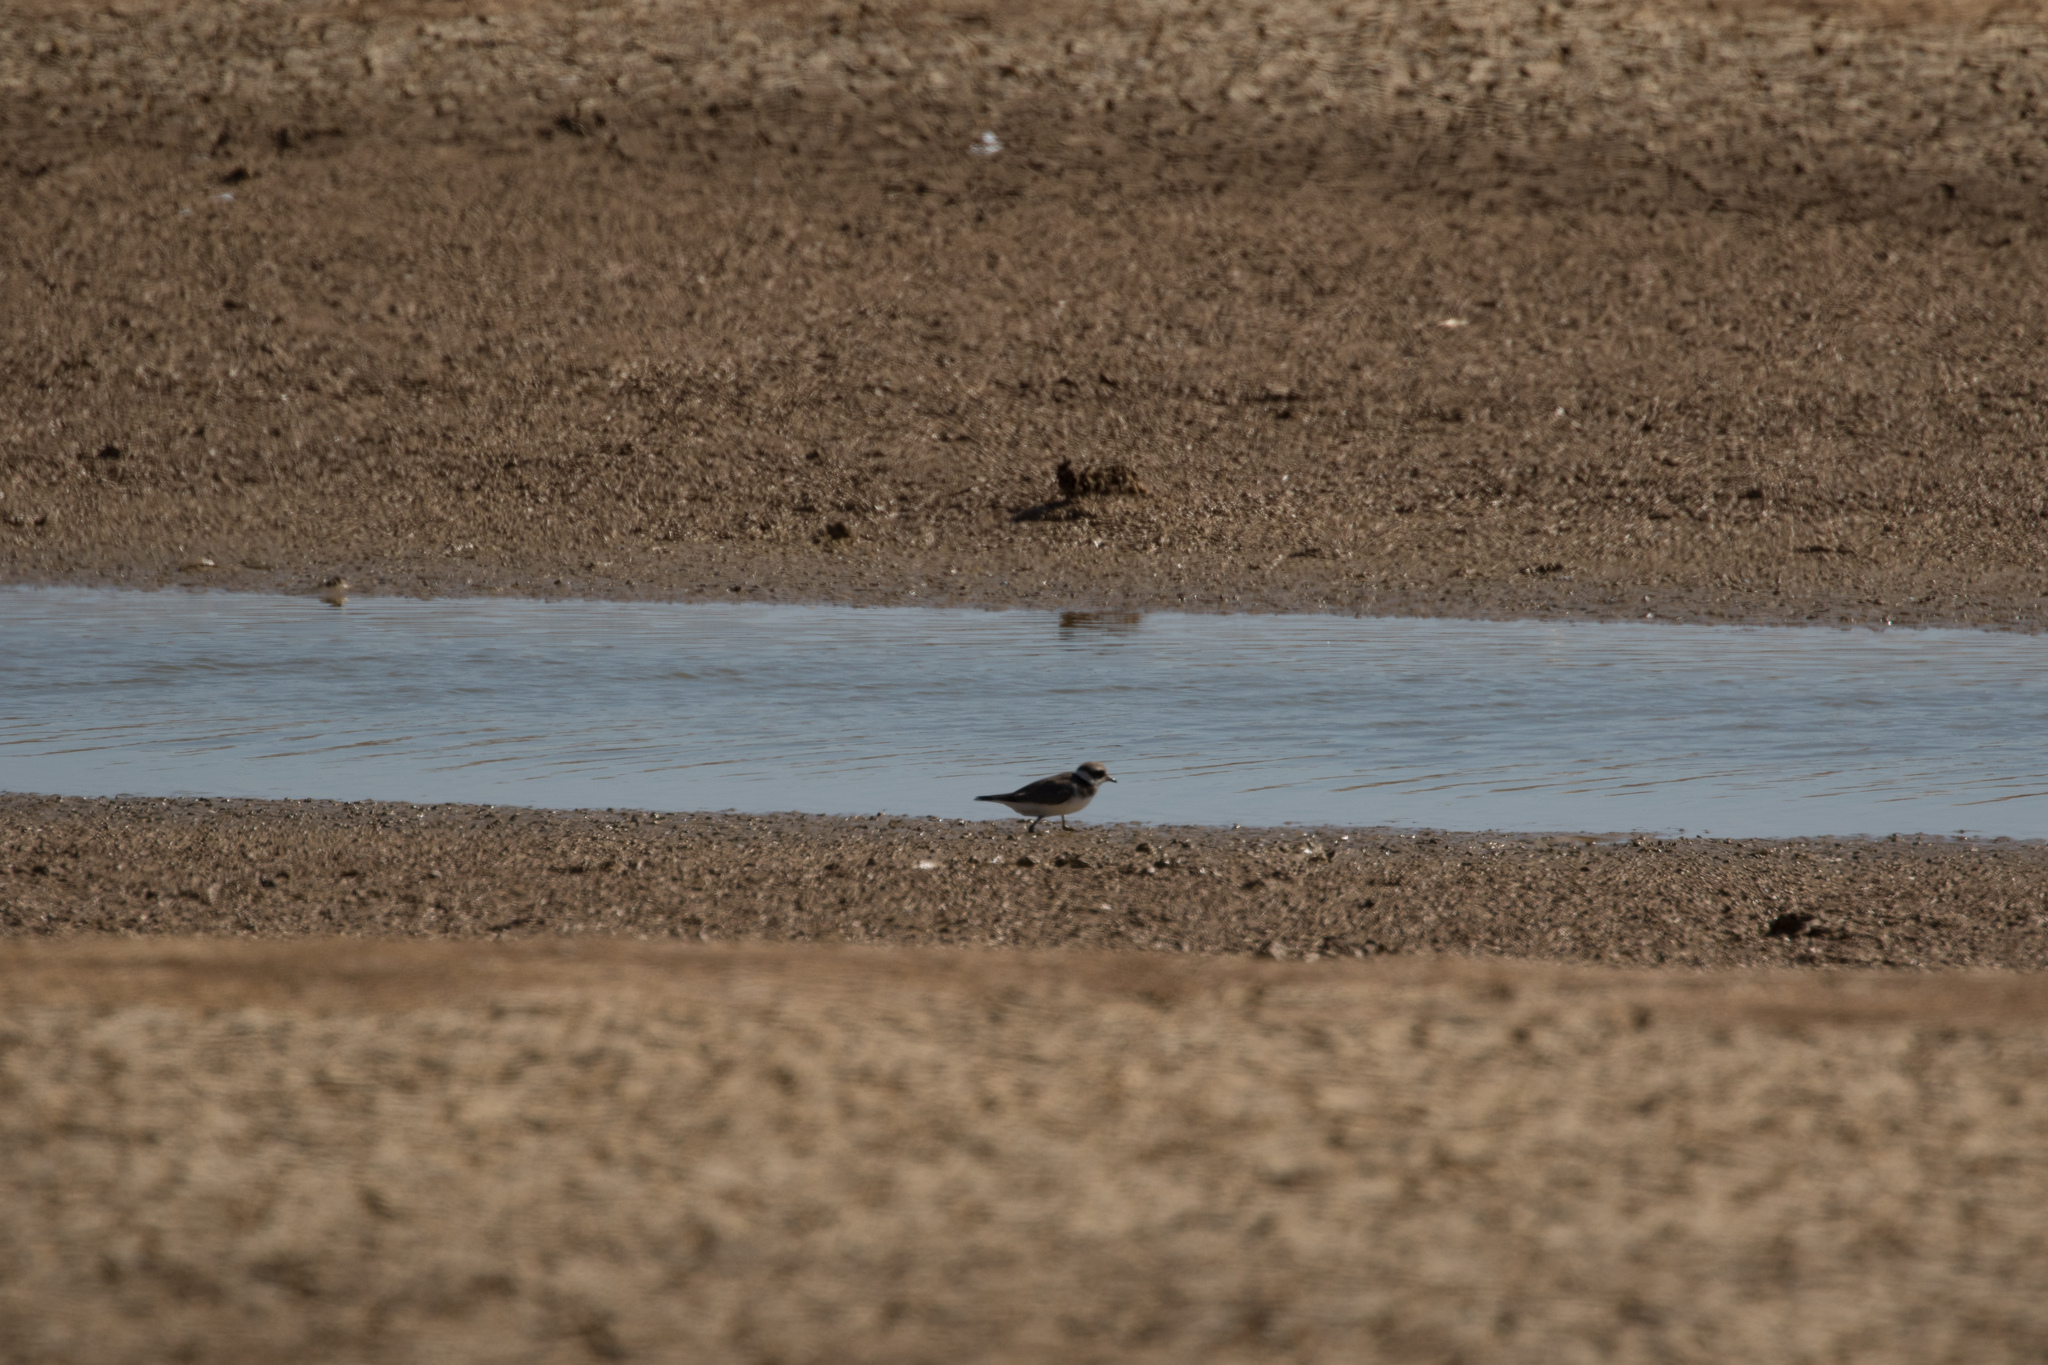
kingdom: Animalia
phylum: Chordata
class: Aves
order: Charadriiformes
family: Charadriidae
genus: Charadrius
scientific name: Charadrius hiaticula
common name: Common ringed plover
